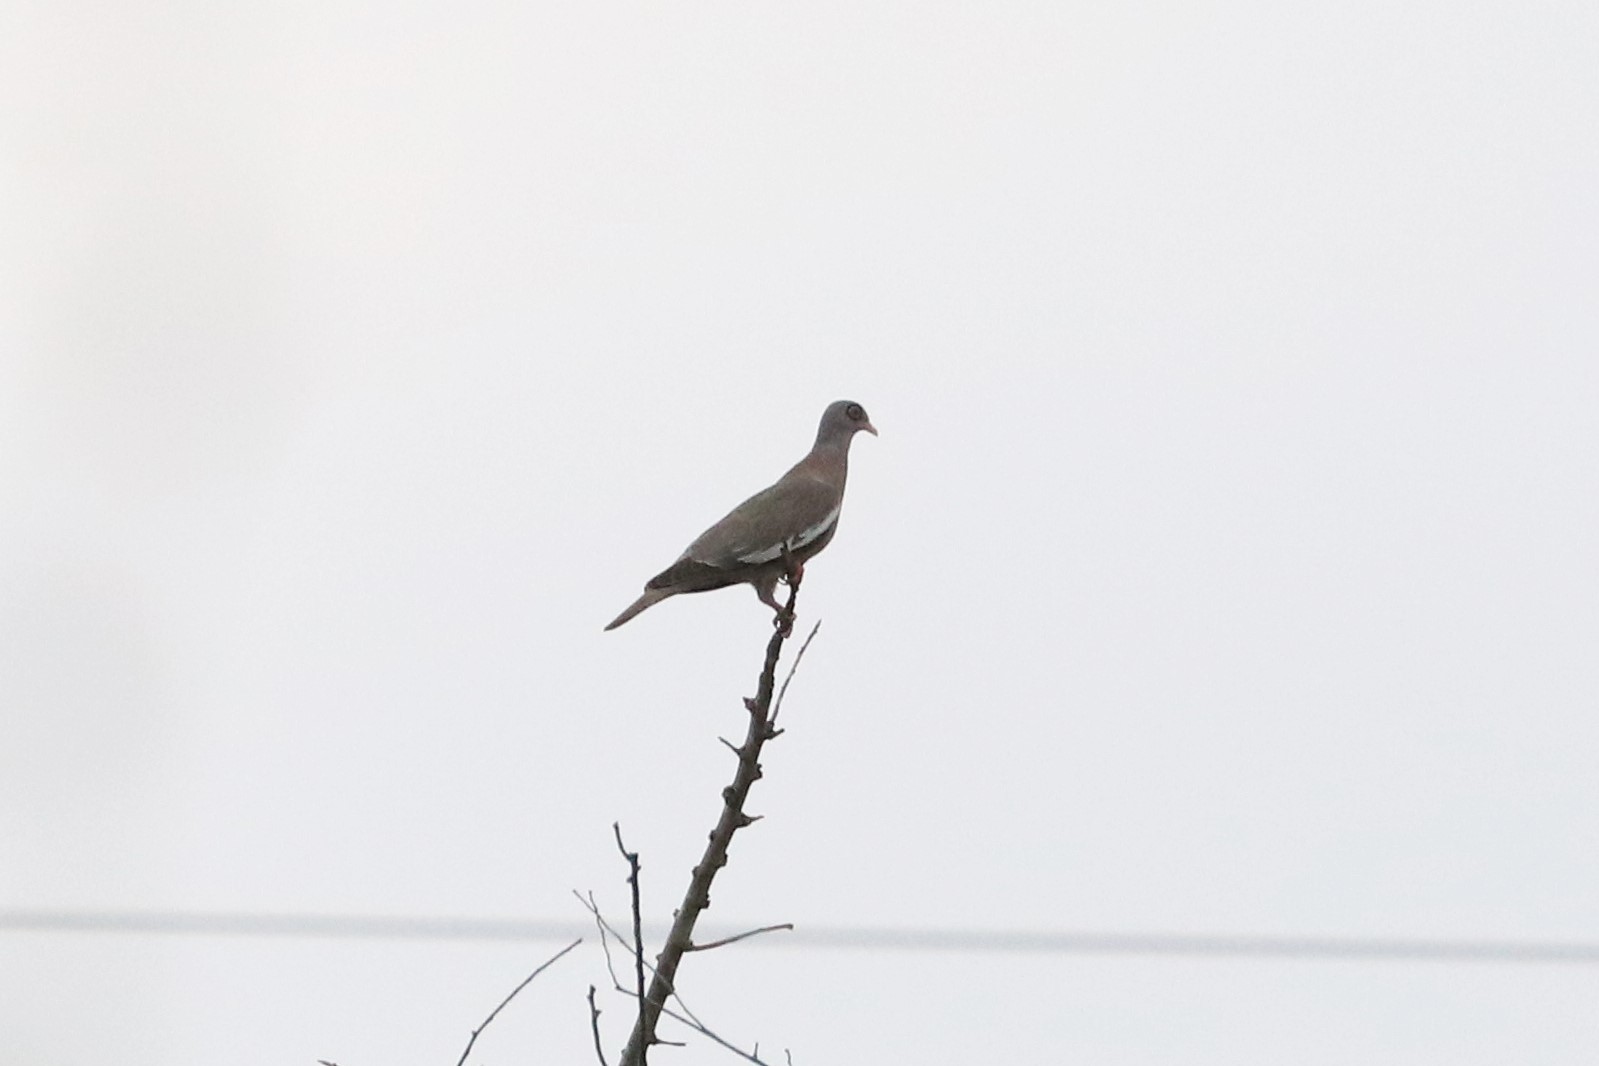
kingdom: Animalia
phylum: Chordata
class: Aves
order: Columbiformes
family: Columbidae
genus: Patagioenas
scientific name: Patagioenas corensis
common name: Bare-eyed pigeon
